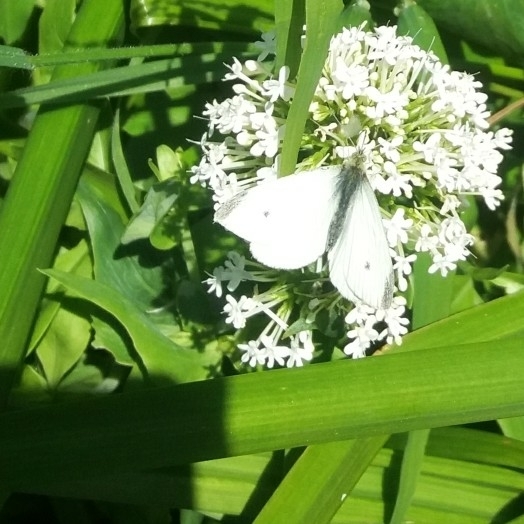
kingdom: Animalia
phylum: Arthropoda
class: Insecta
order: Lepidoptera
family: Pieridae
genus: Pieris
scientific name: Pieris rapae
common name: Small white
